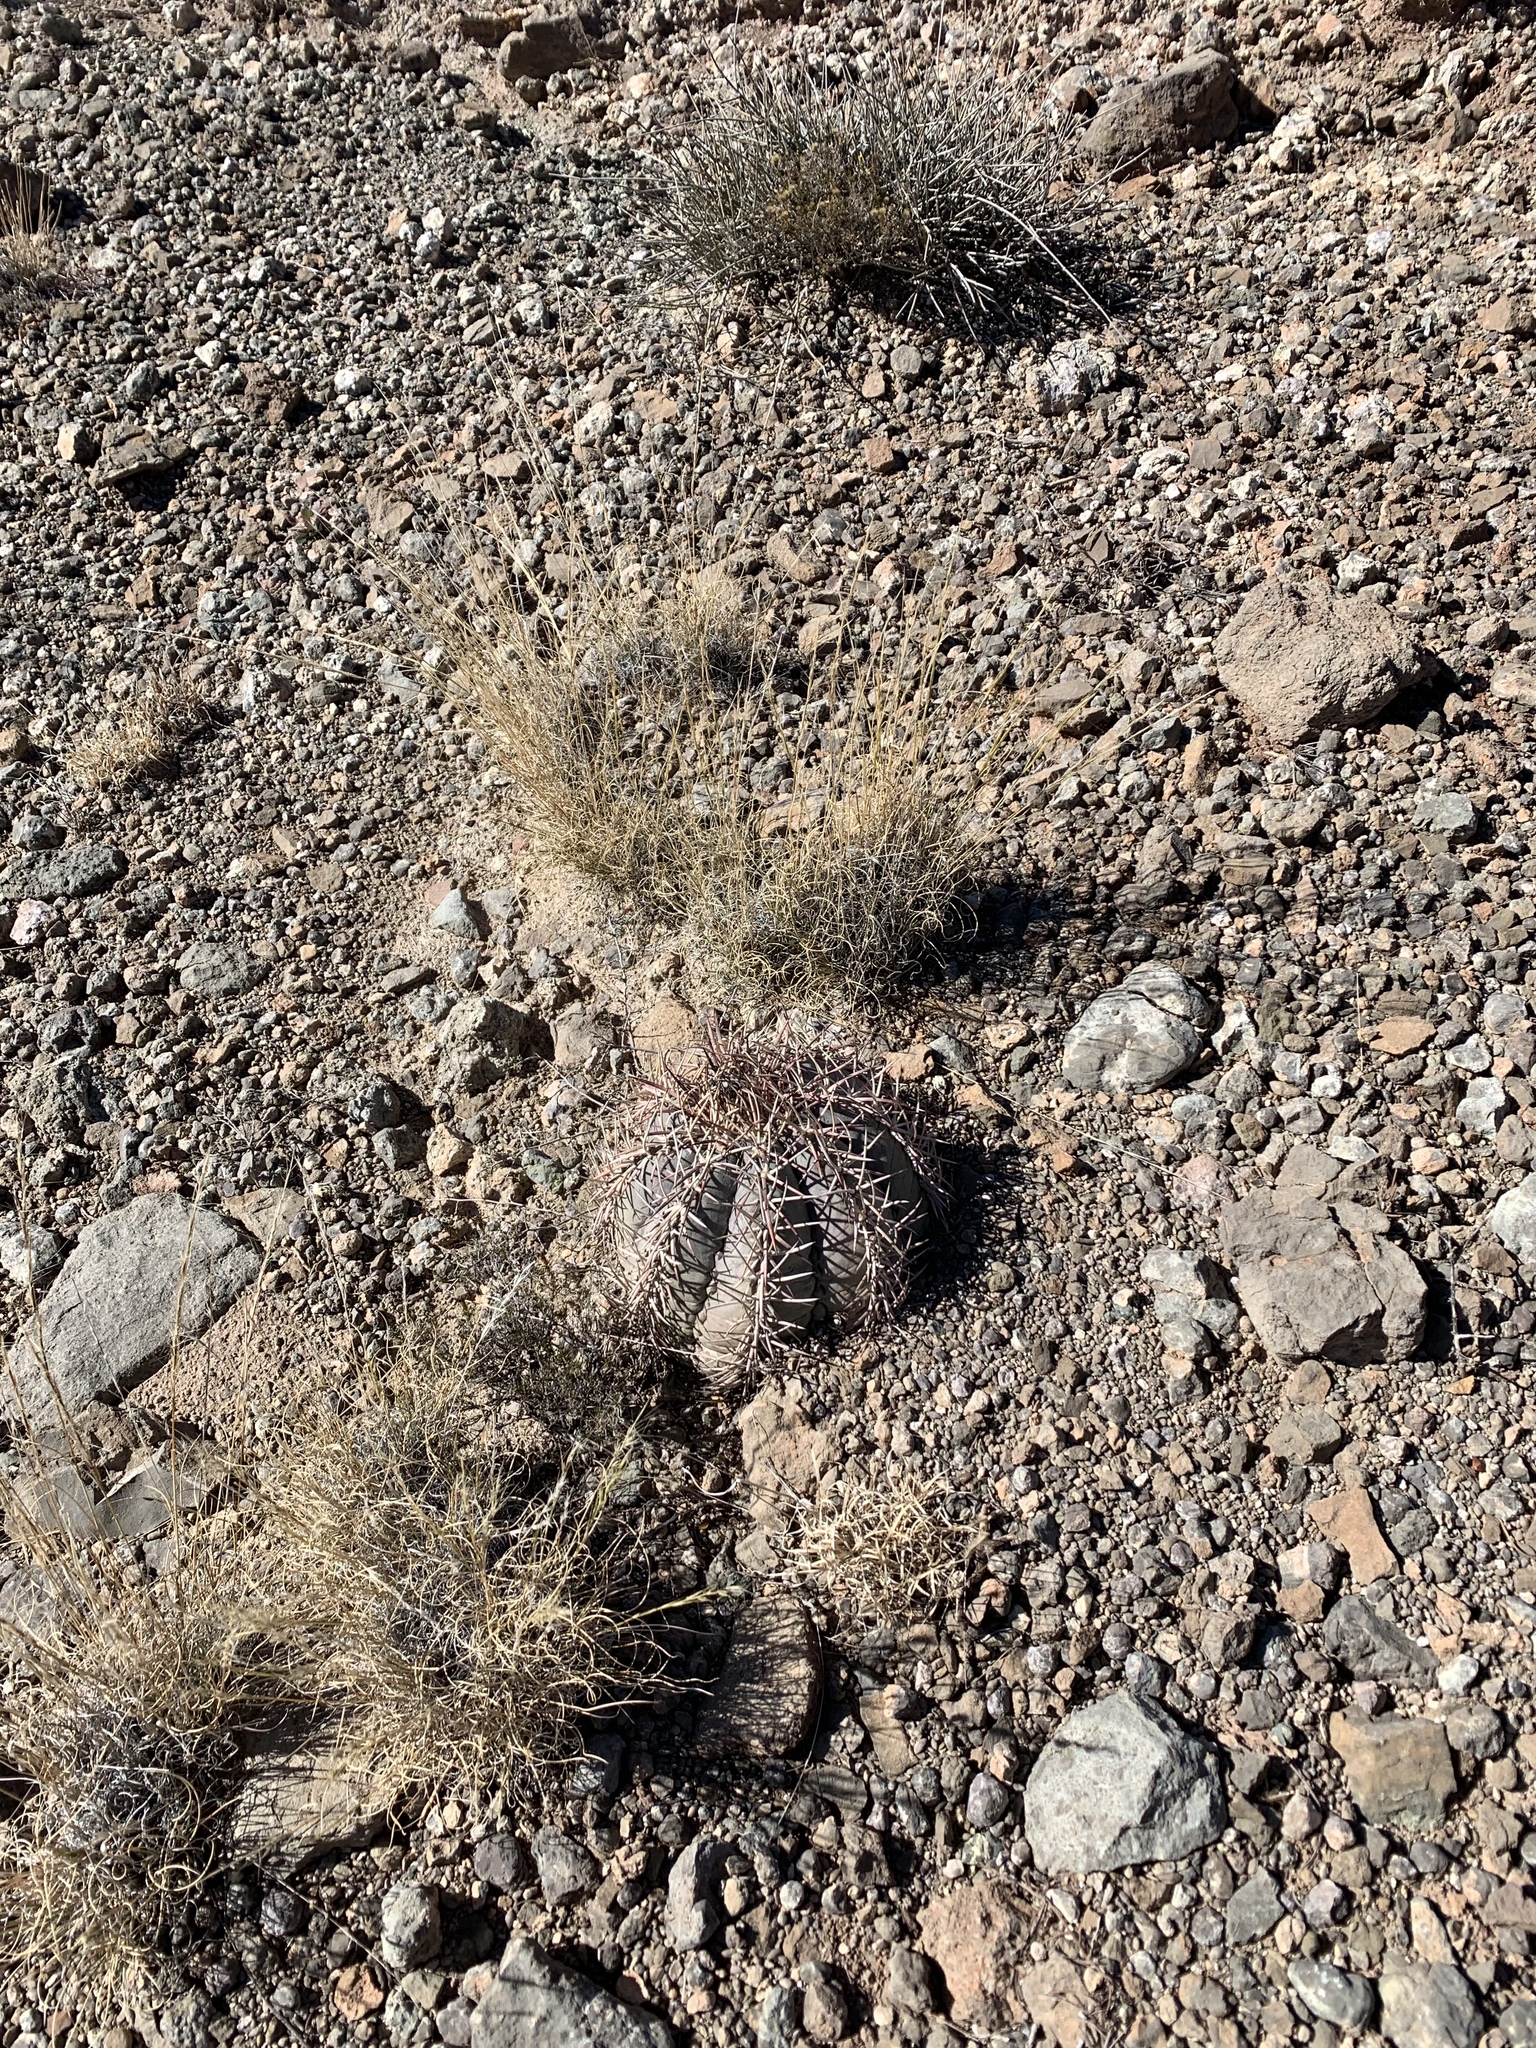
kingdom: Plantae
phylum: Tracheophyta
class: Magnoliopsida
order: Caryophyllales
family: Cactaceae
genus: Echinocactus
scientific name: Echinocactus horizonthalonius
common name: Devilshead
